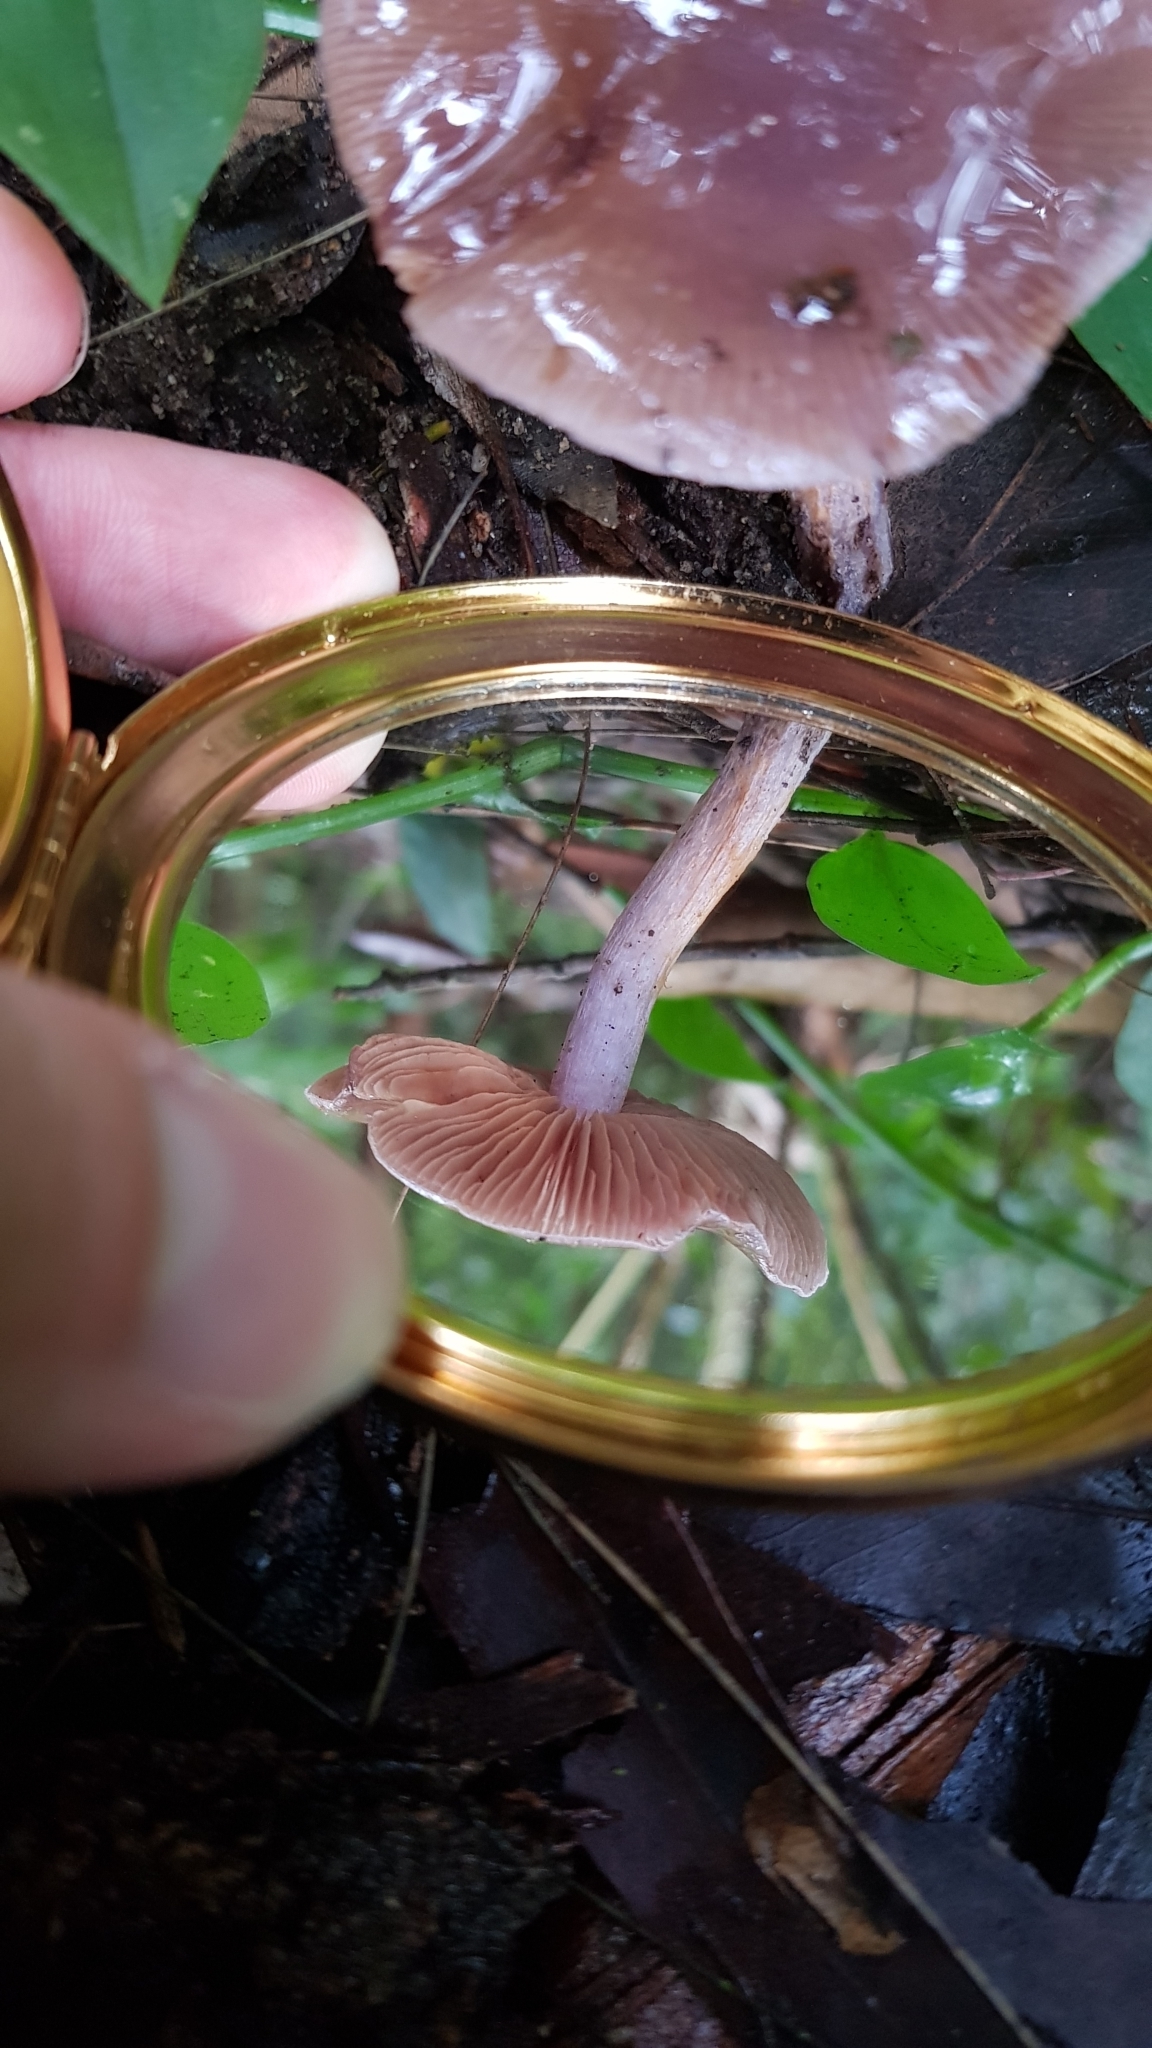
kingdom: Fungi
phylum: Basidiomycota
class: Agaricomycetes
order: Agaricales
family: Cortinariaceae
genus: Thaxterogaster
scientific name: Thaxterogaster submagellanicus
